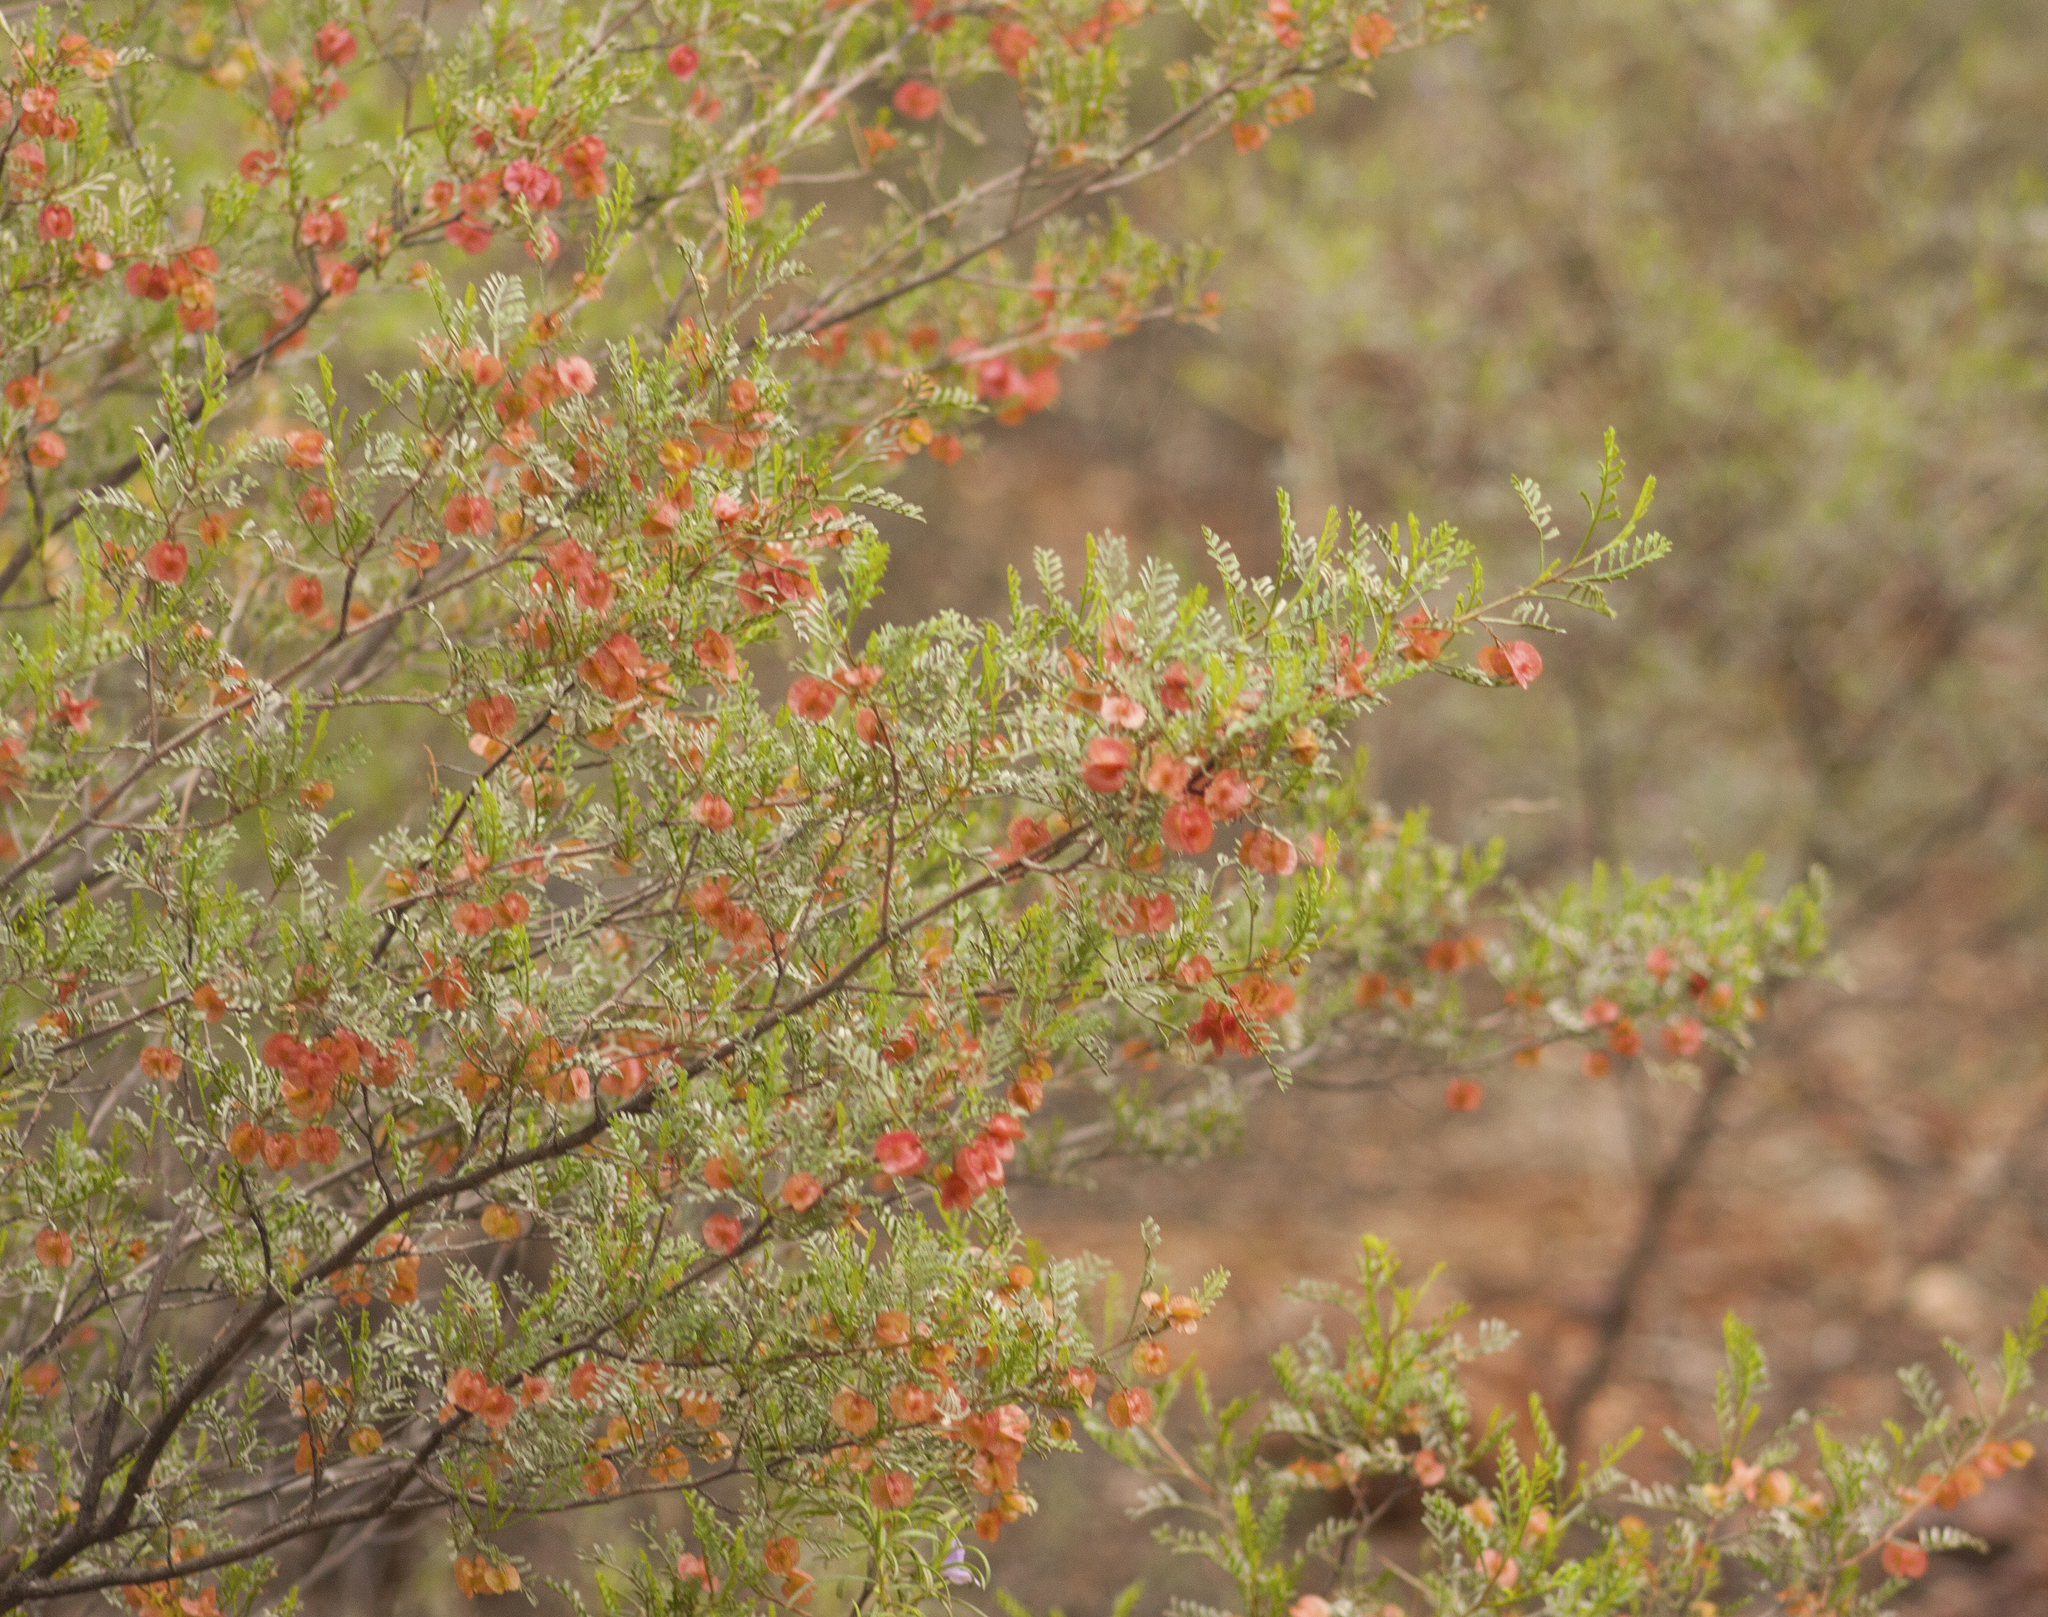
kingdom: Plantae
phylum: Tracheophyta
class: Magnoliopsida
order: Sapindales
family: Sapindaceae
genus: Dodonaea
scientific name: Dodonaea boroniifolia
